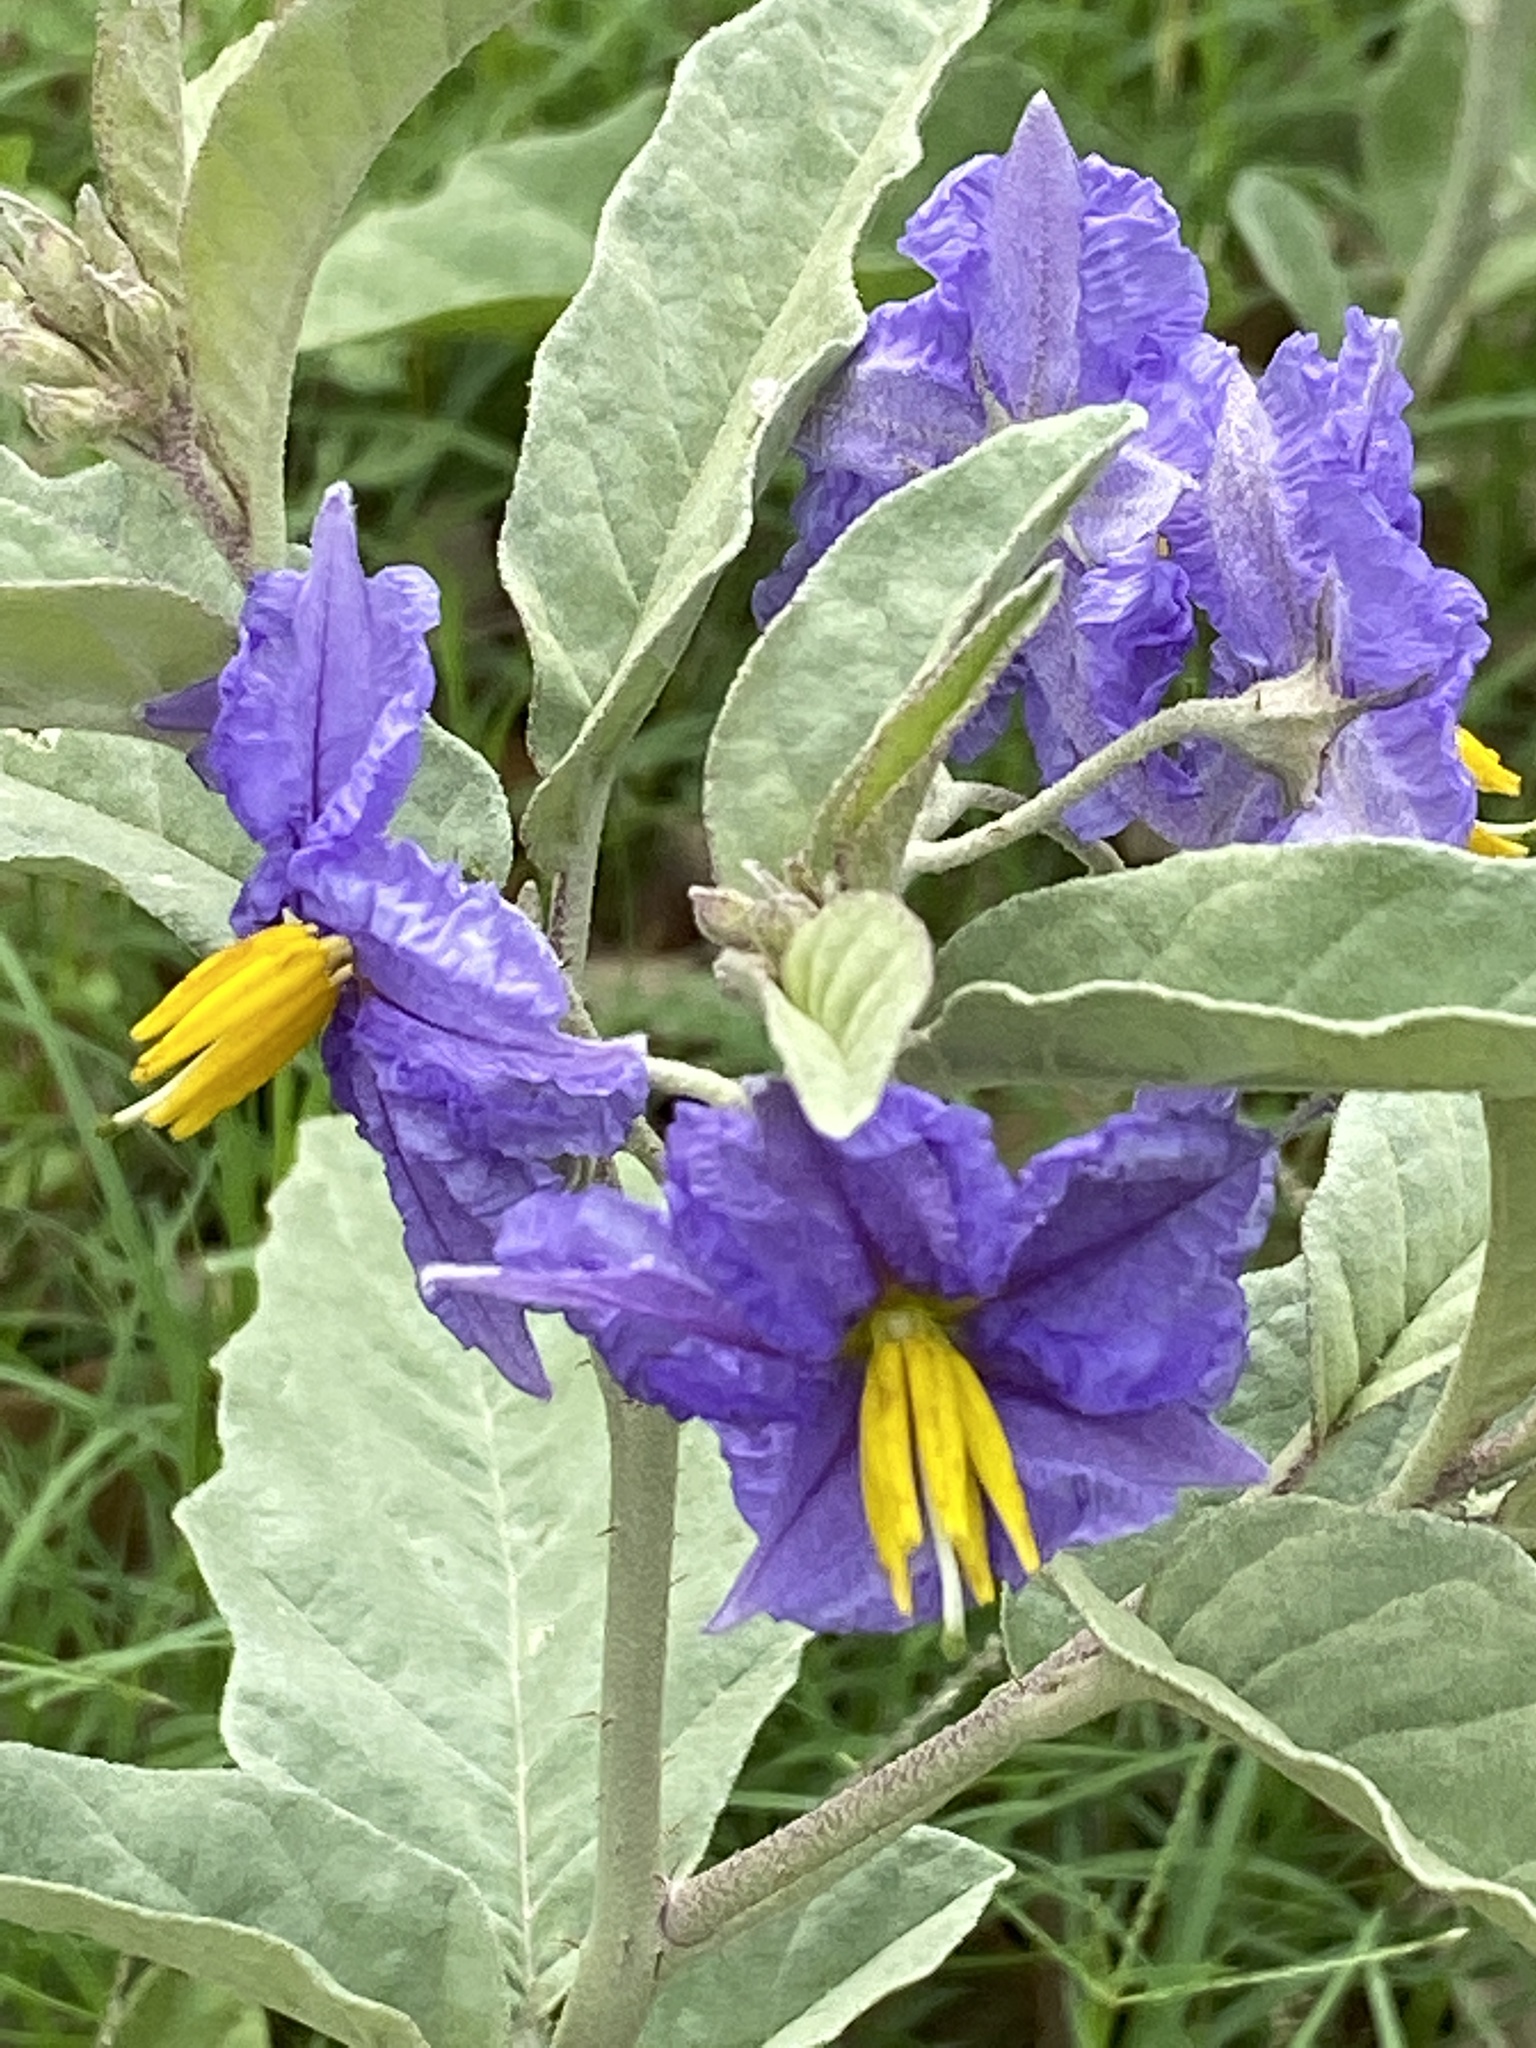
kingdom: Plantae
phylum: Tracheophyta
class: Magnoliopsida
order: Solanales
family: Solanaceae
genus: Solanum
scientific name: Solanum elaeagnifolium
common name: Silverleaf nightshade
